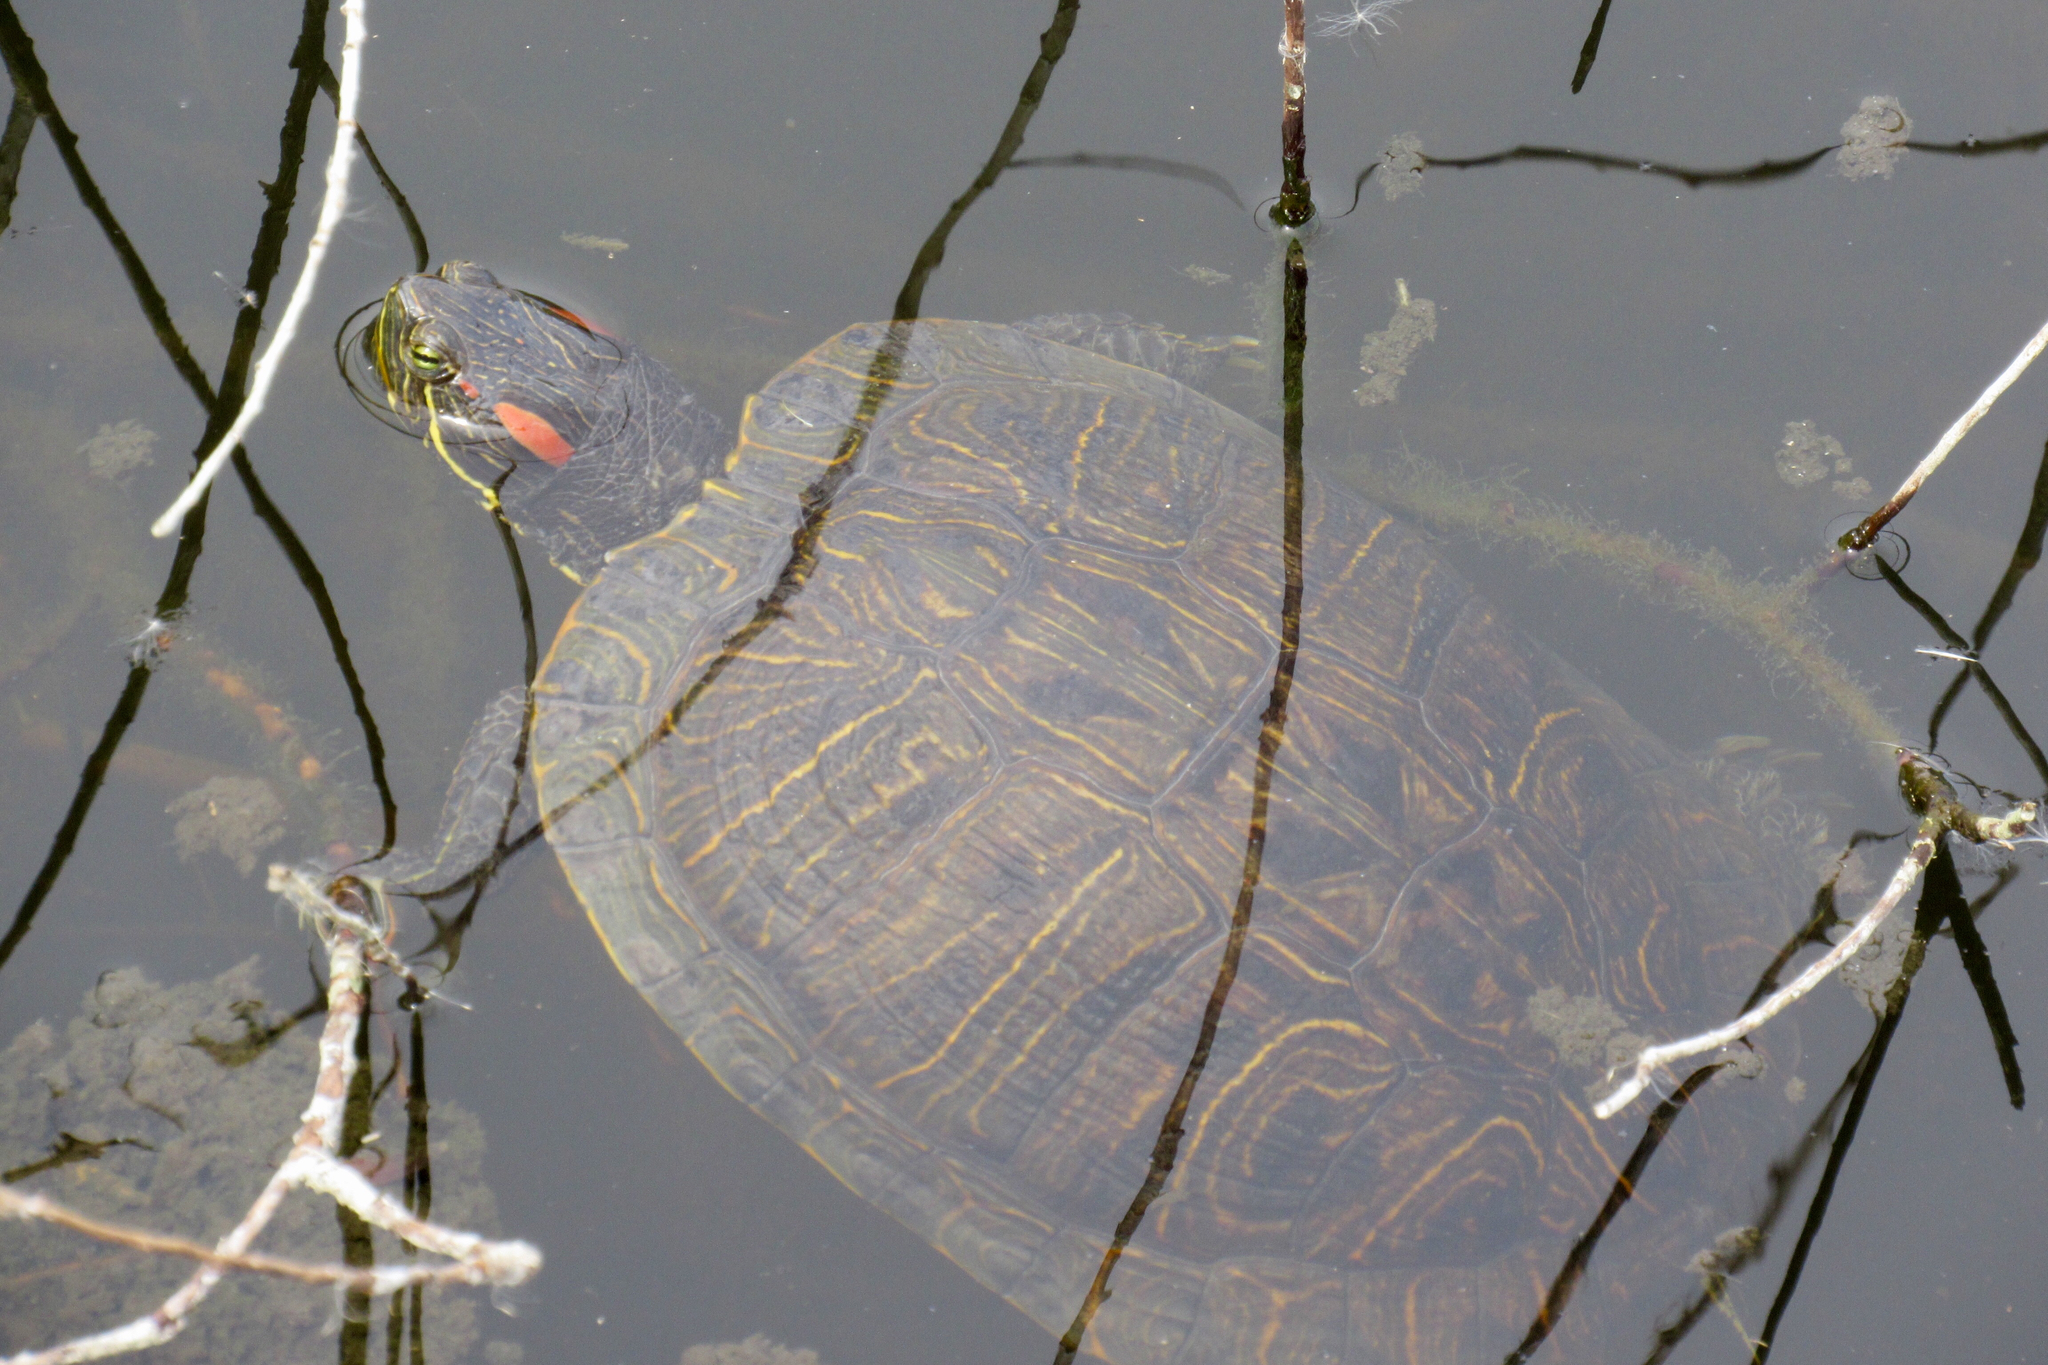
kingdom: Animalia
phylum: Chordata
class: Testudines
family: Emydidae
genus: Trachemys
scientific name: Trachemys scripta
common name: Slider
